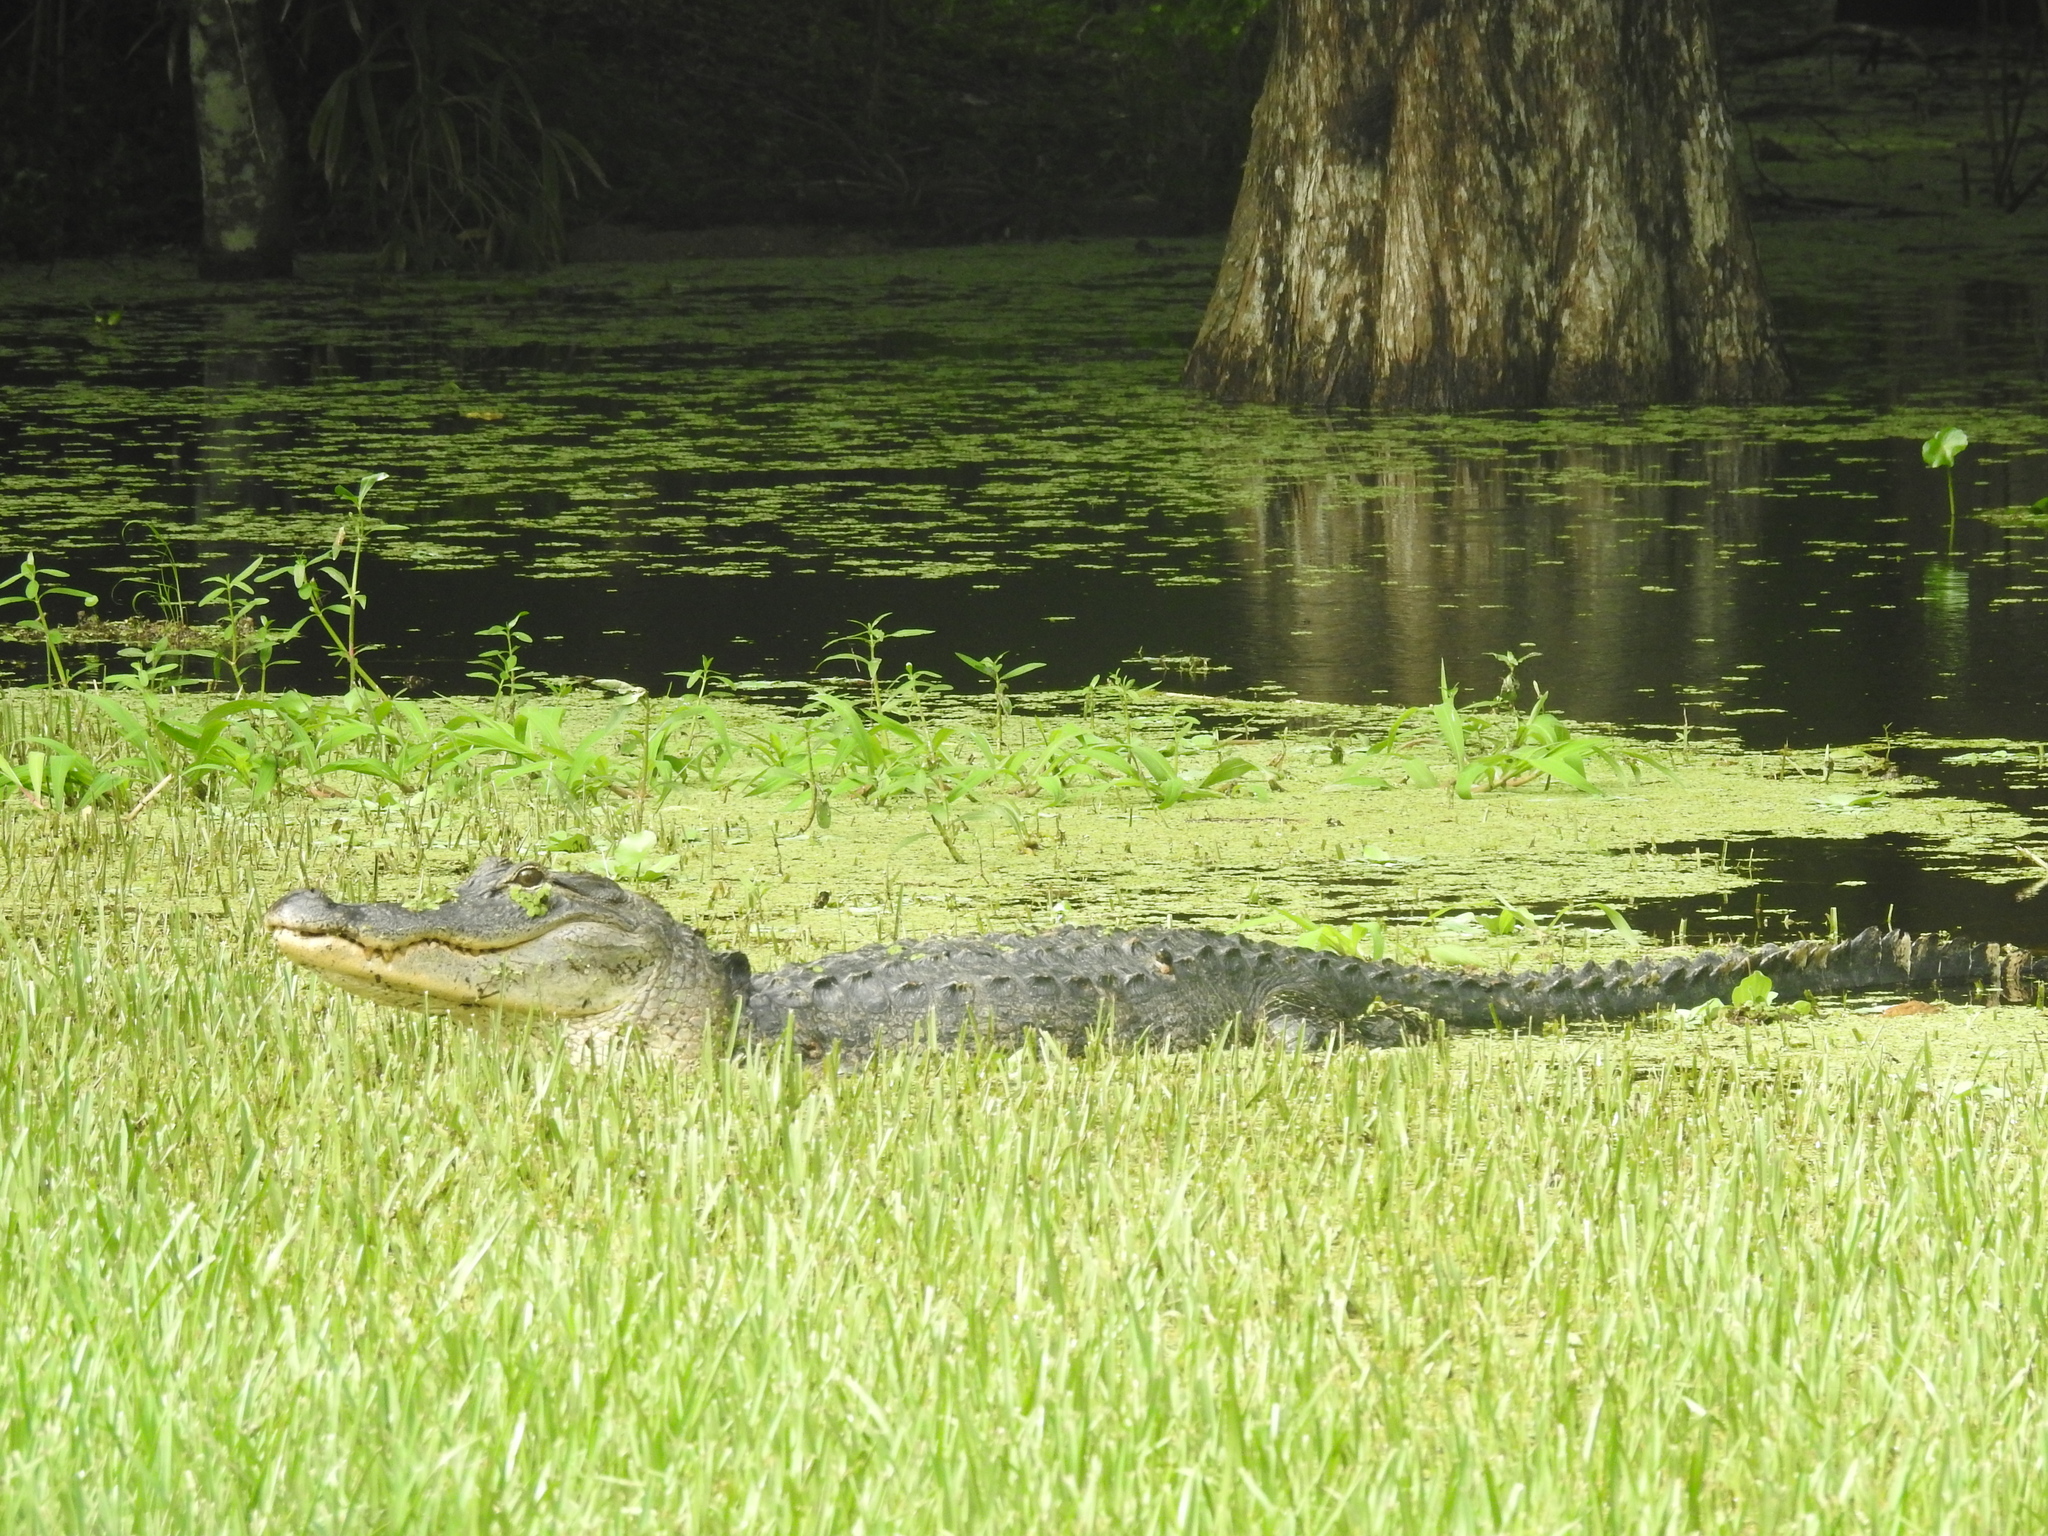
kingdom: Animalia
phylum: Chordata
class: Crocodylia
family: Alligatoridae
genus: Alligator
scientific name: Alligator mississippiensis
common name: American alligator
